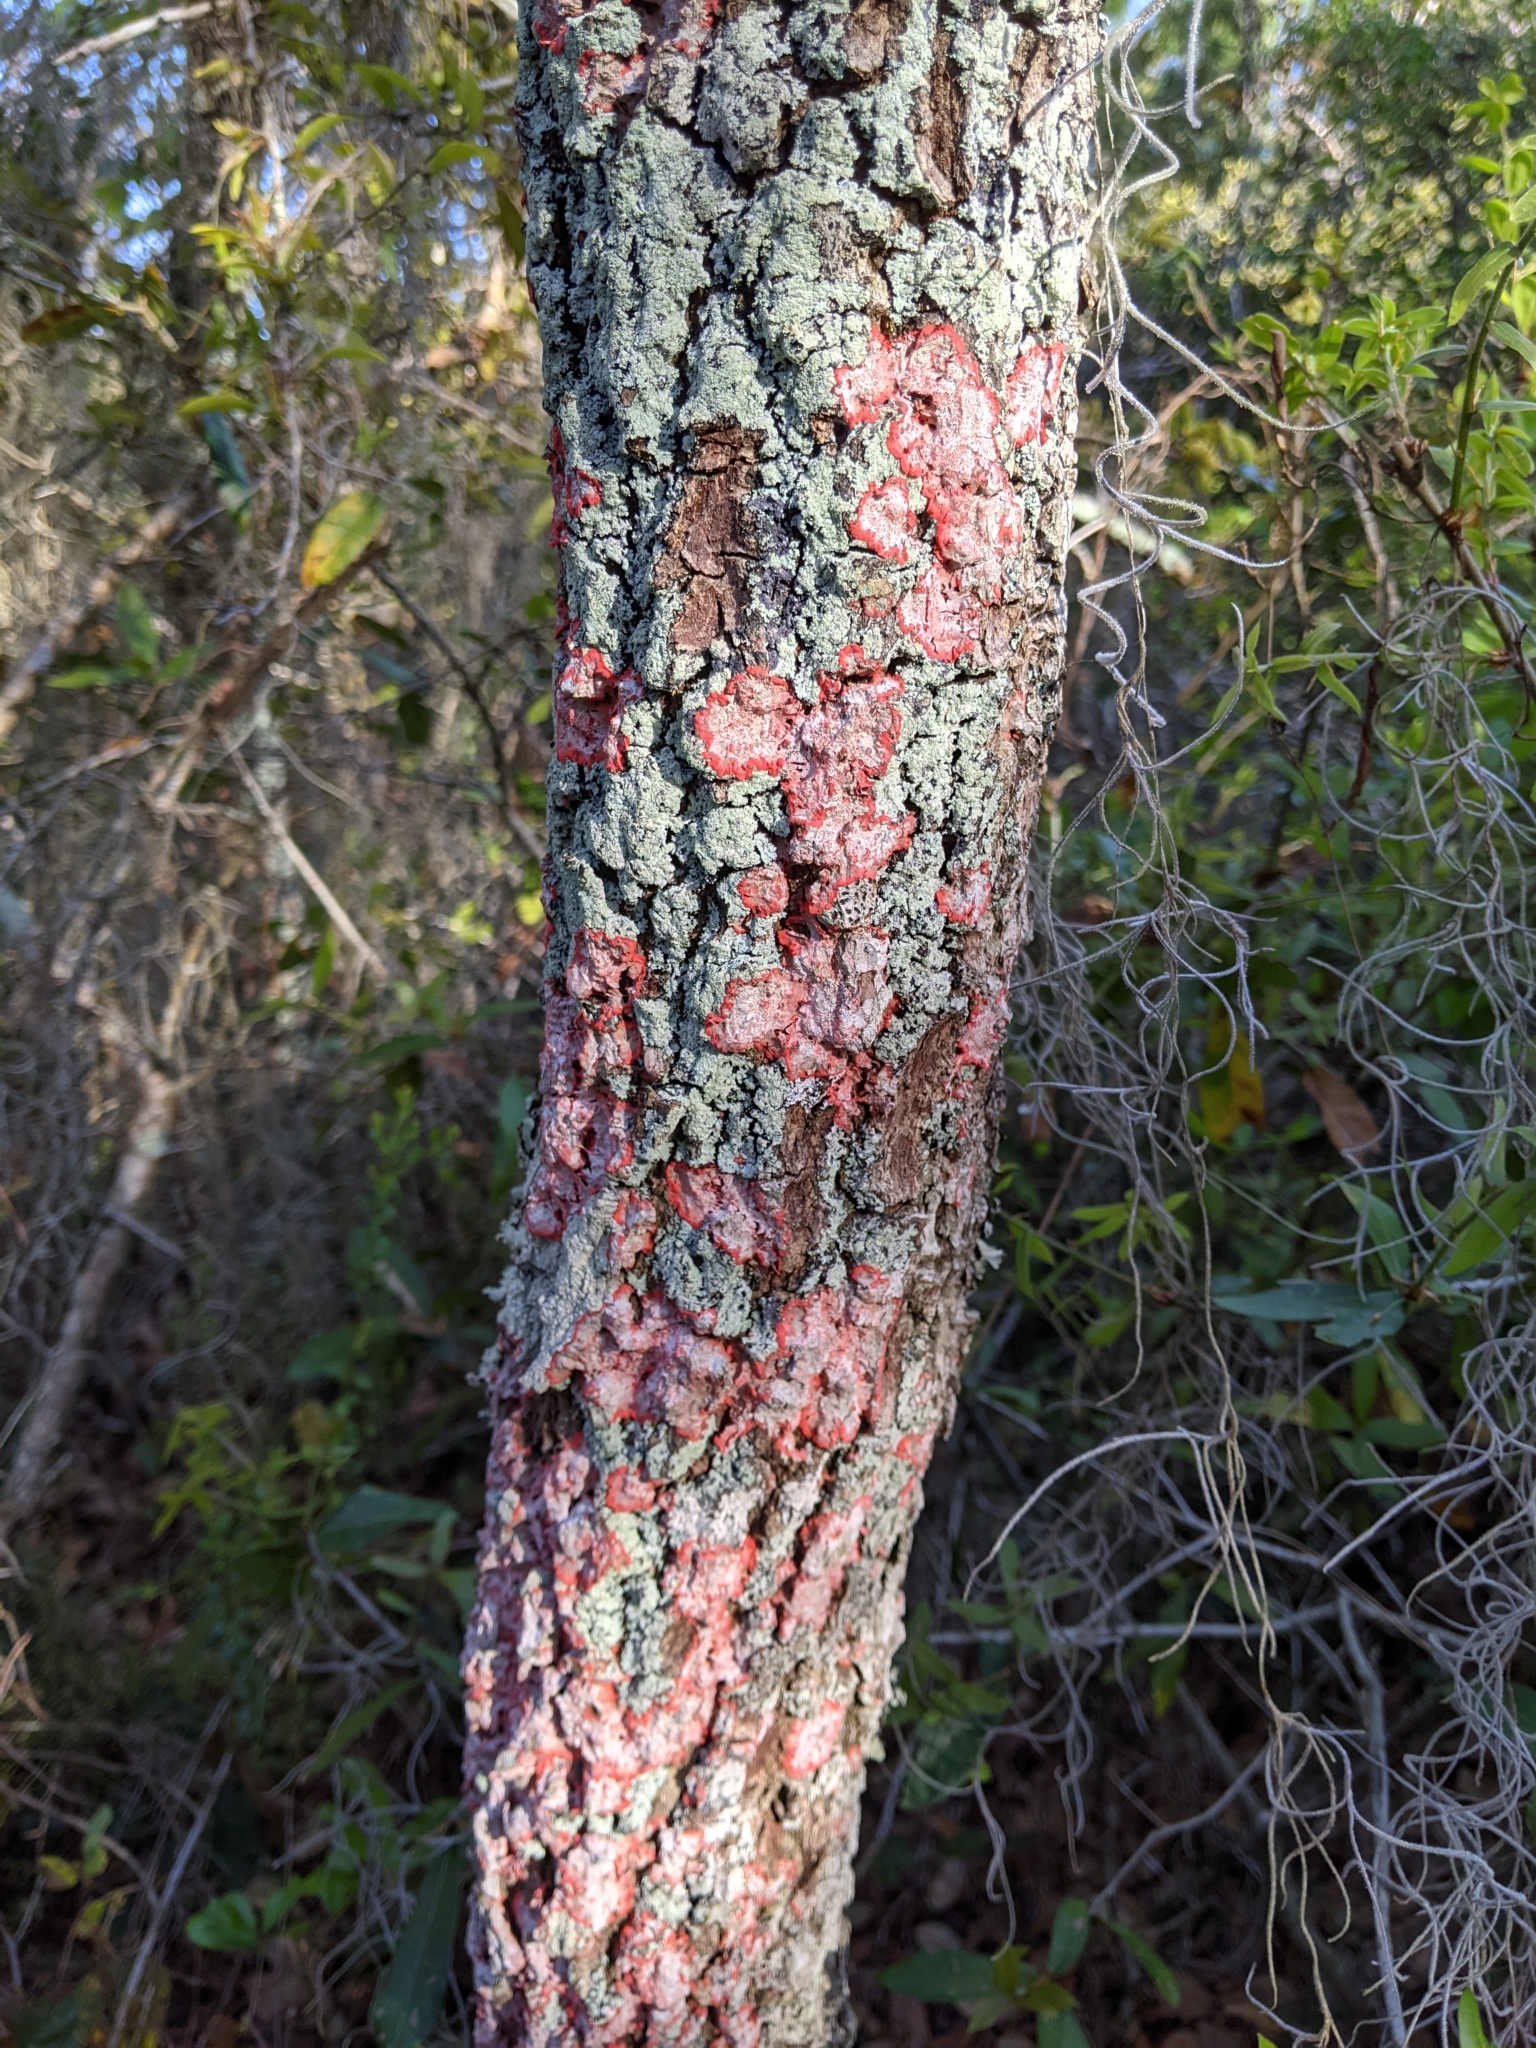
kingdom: Fungi
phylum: Ascomycota
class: Arthoniomycetes
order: Arthoniales
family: Arthoniaceae
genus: Herpothallon
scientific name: Herpothallon rubrocinctum
